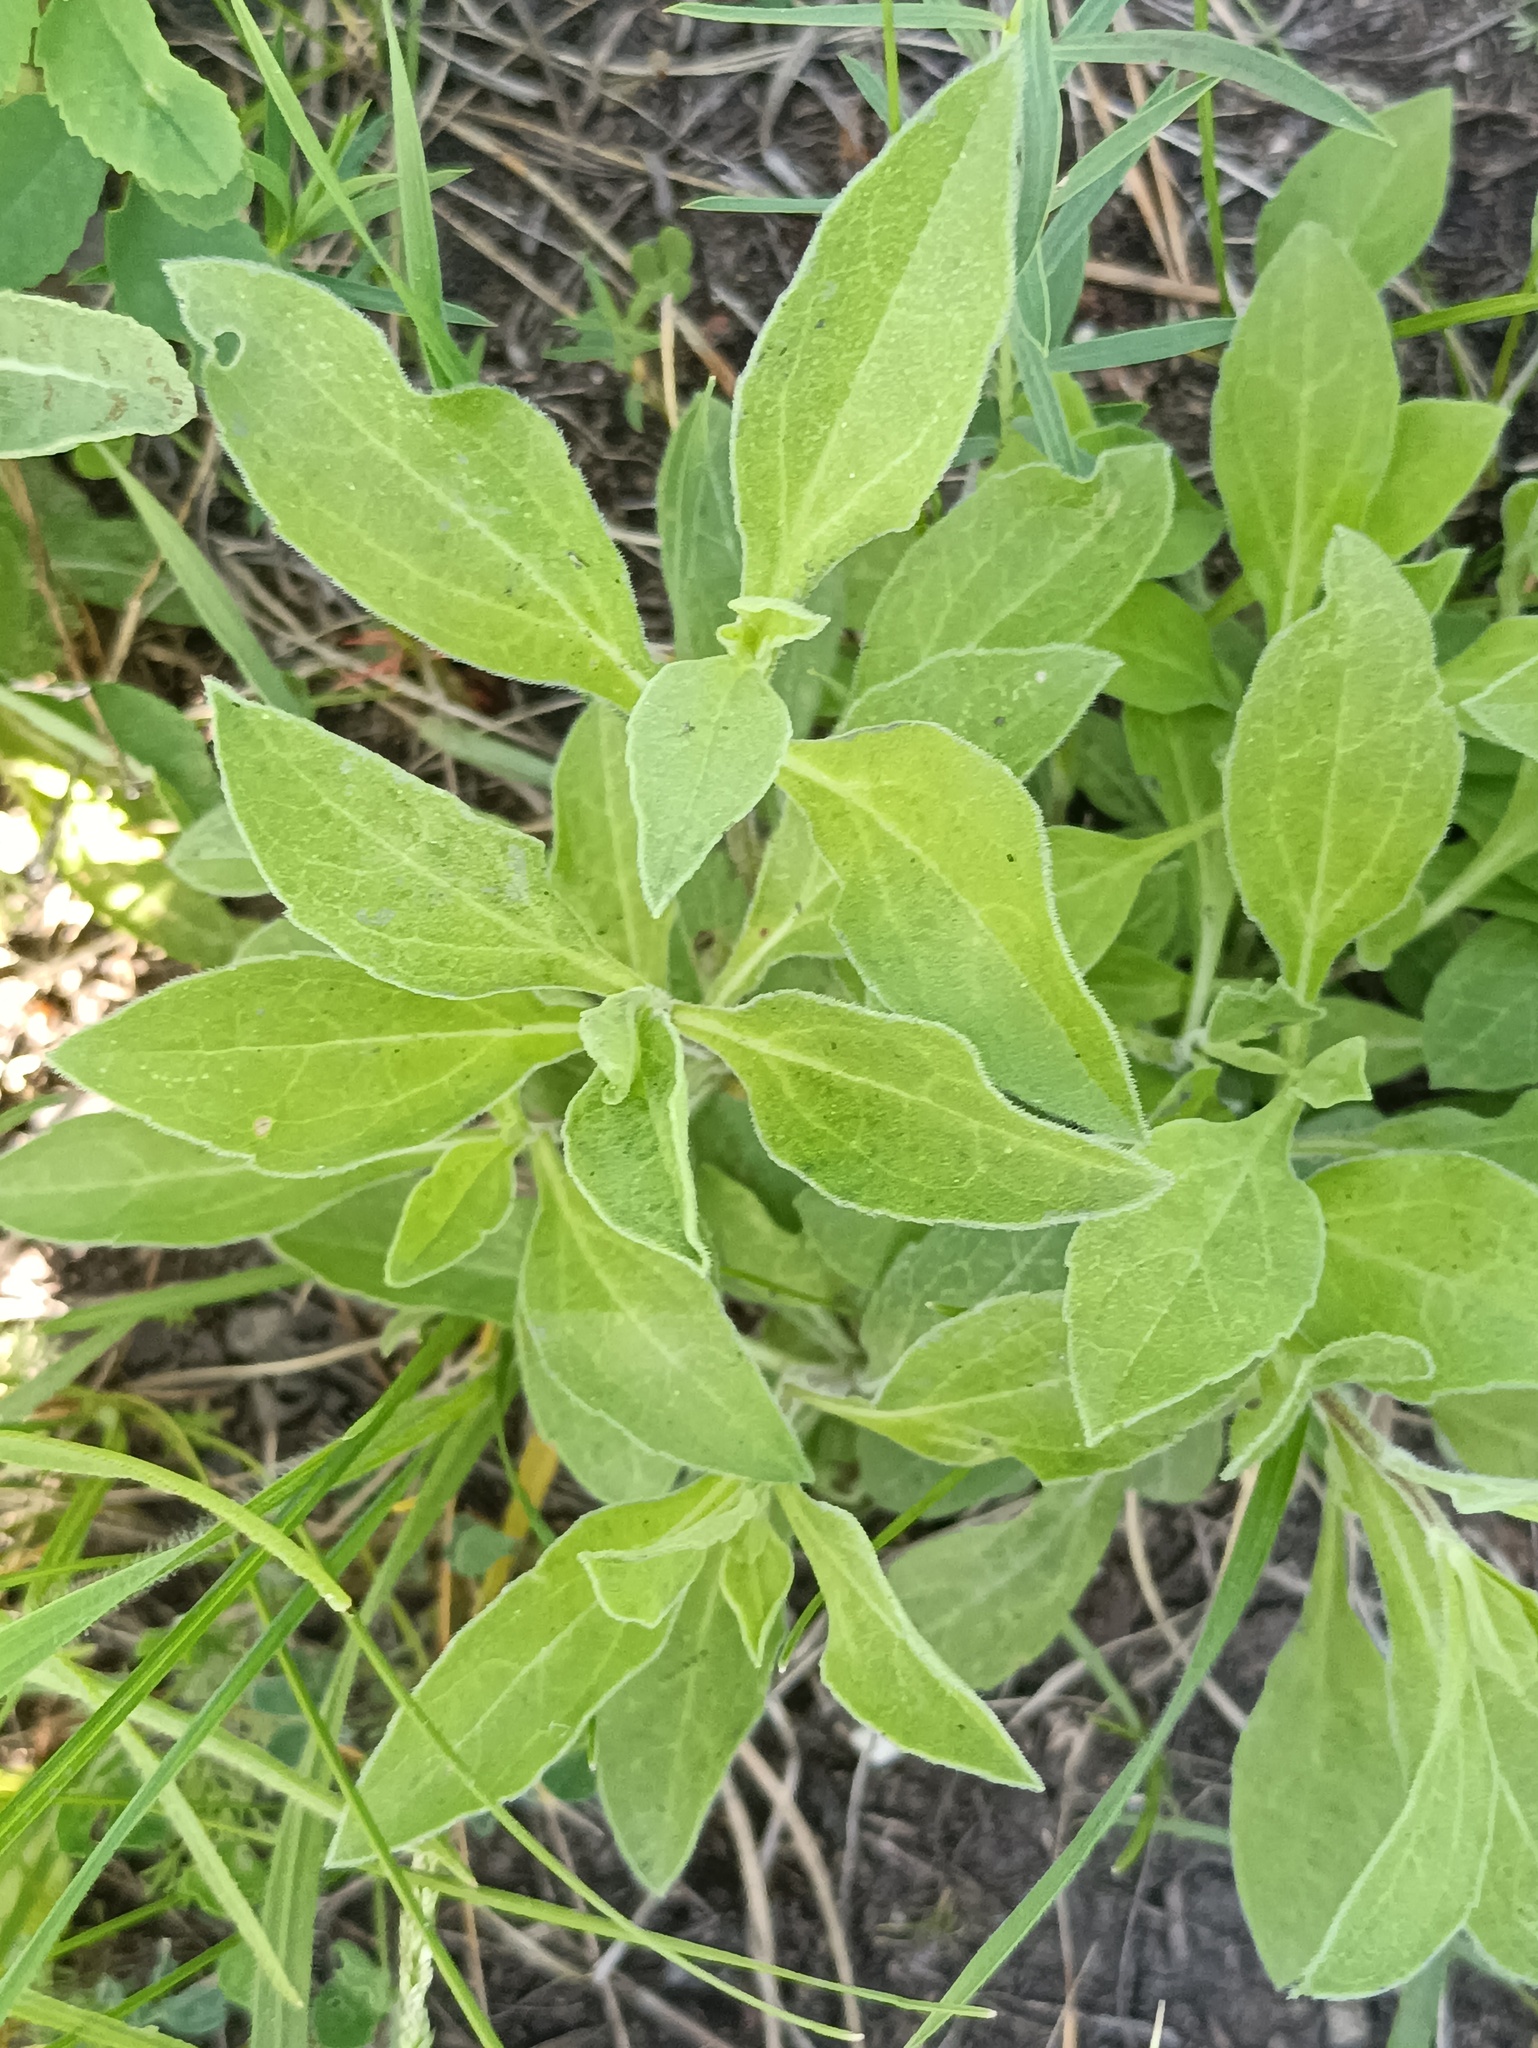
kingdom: Plantae
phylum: Tracheophyta
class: Magnoliopsida
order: Caryophyllales
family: Caryophyllaceae
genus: Silene
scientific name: Silene latifolia
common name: White campion
